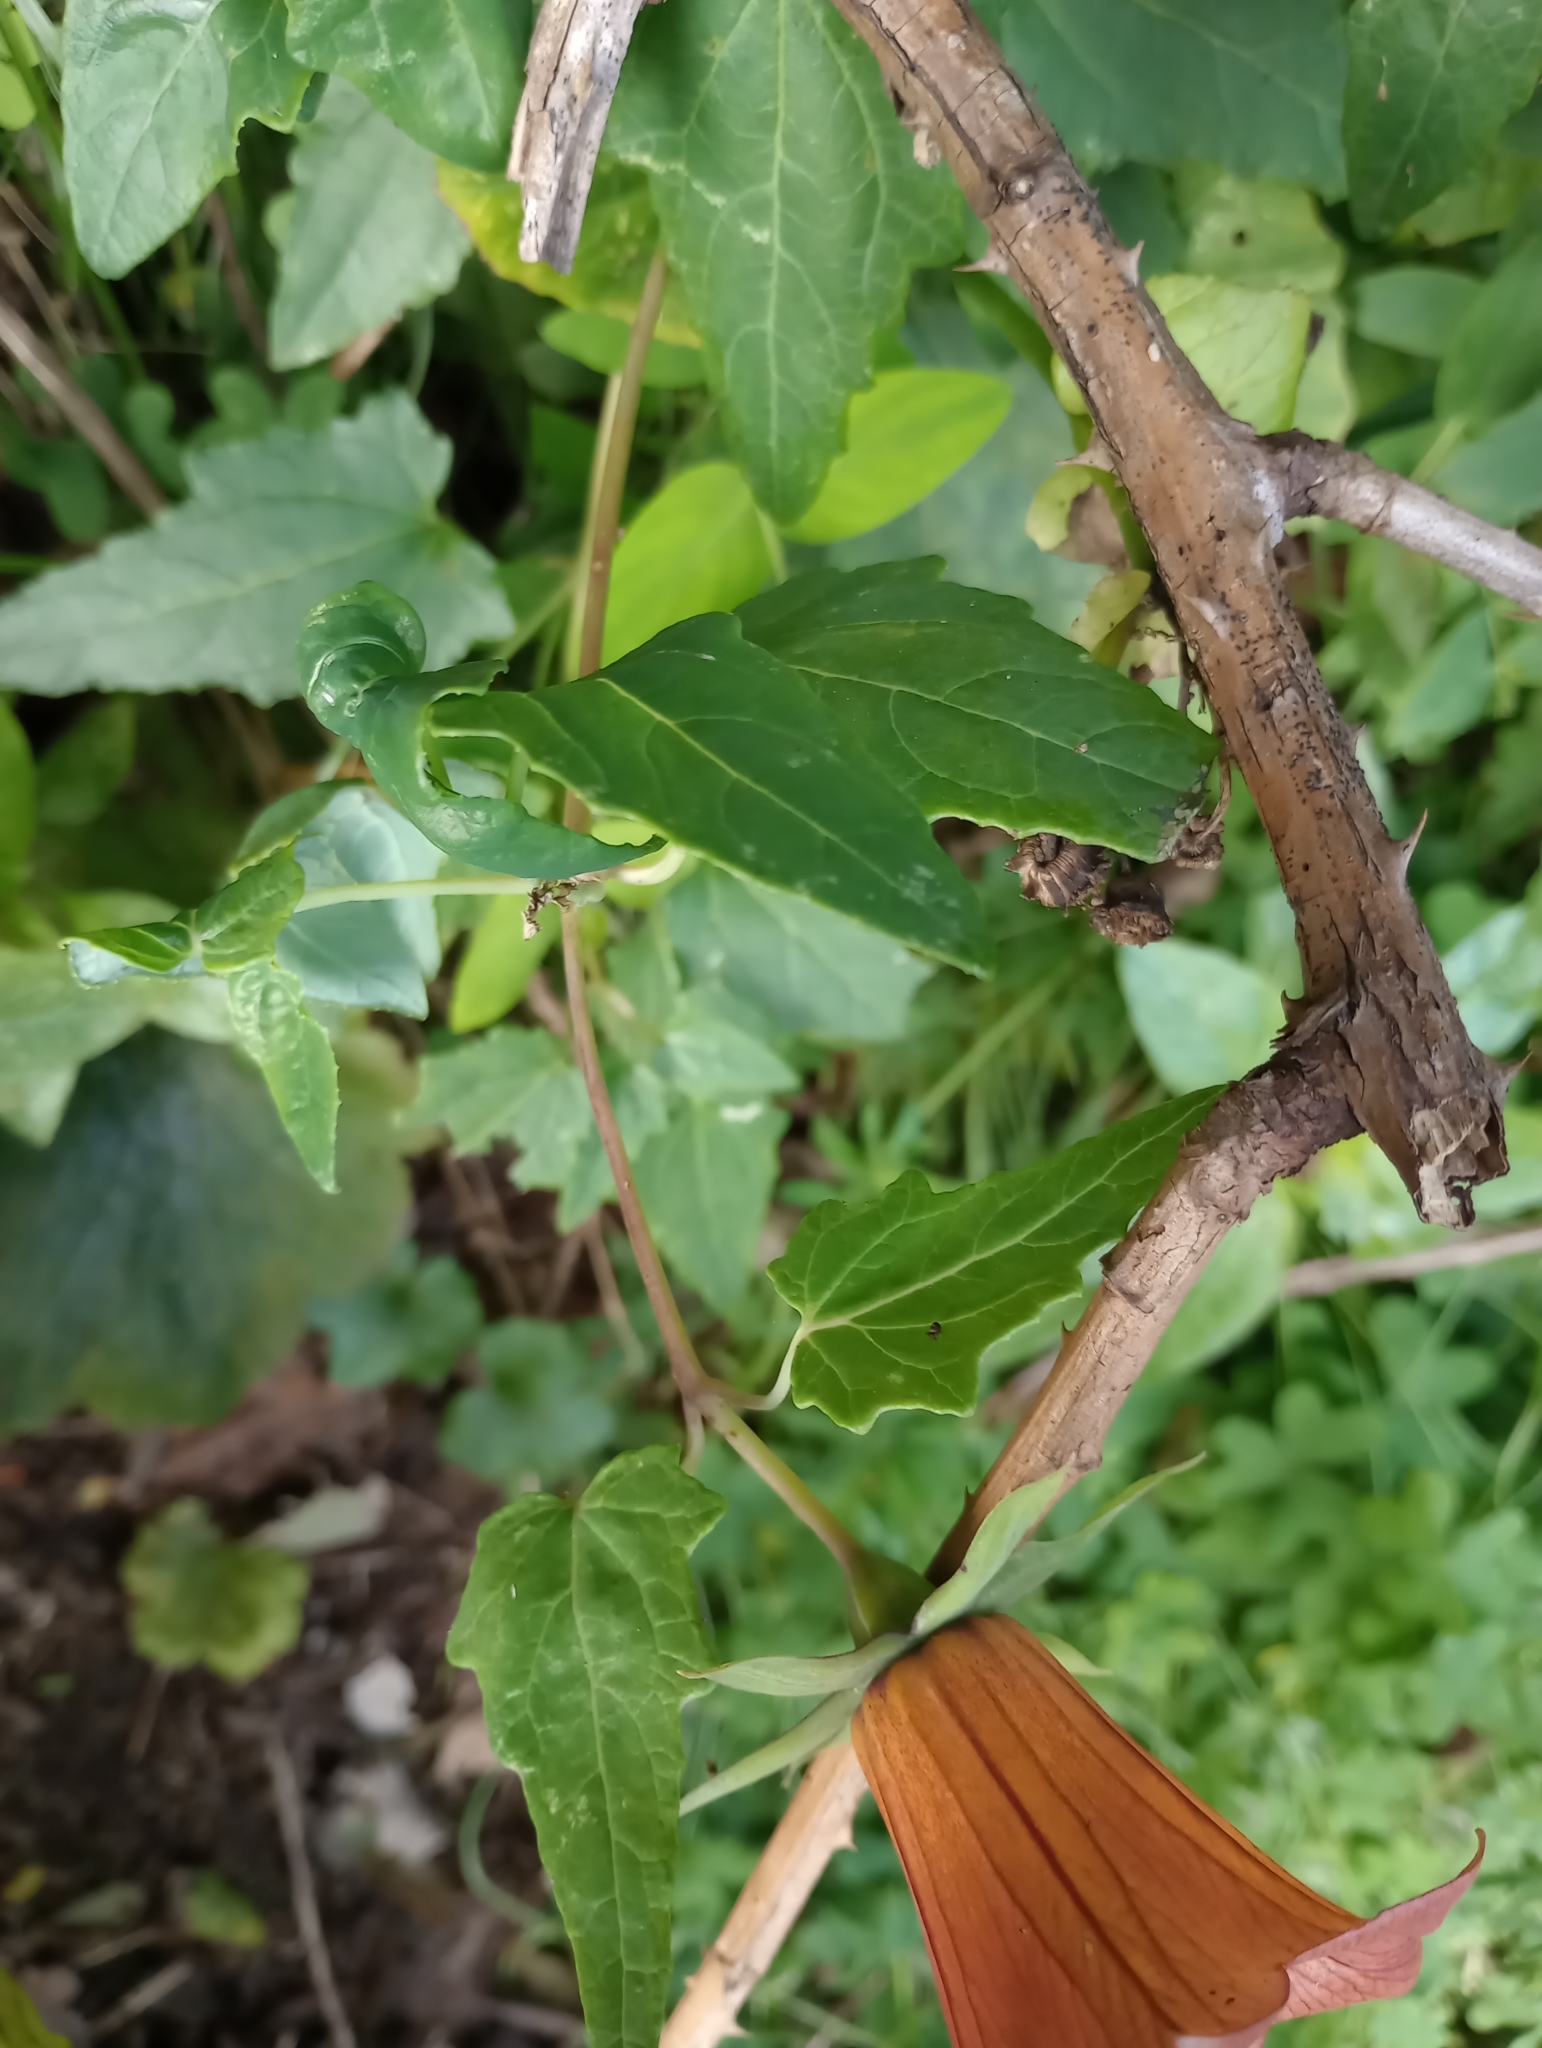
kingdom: Plantae
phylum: Tracheophyta
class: Magnoliopsida
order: Asterales
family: Campanulaceae
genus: Canarina
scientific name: Canarina canariensis
